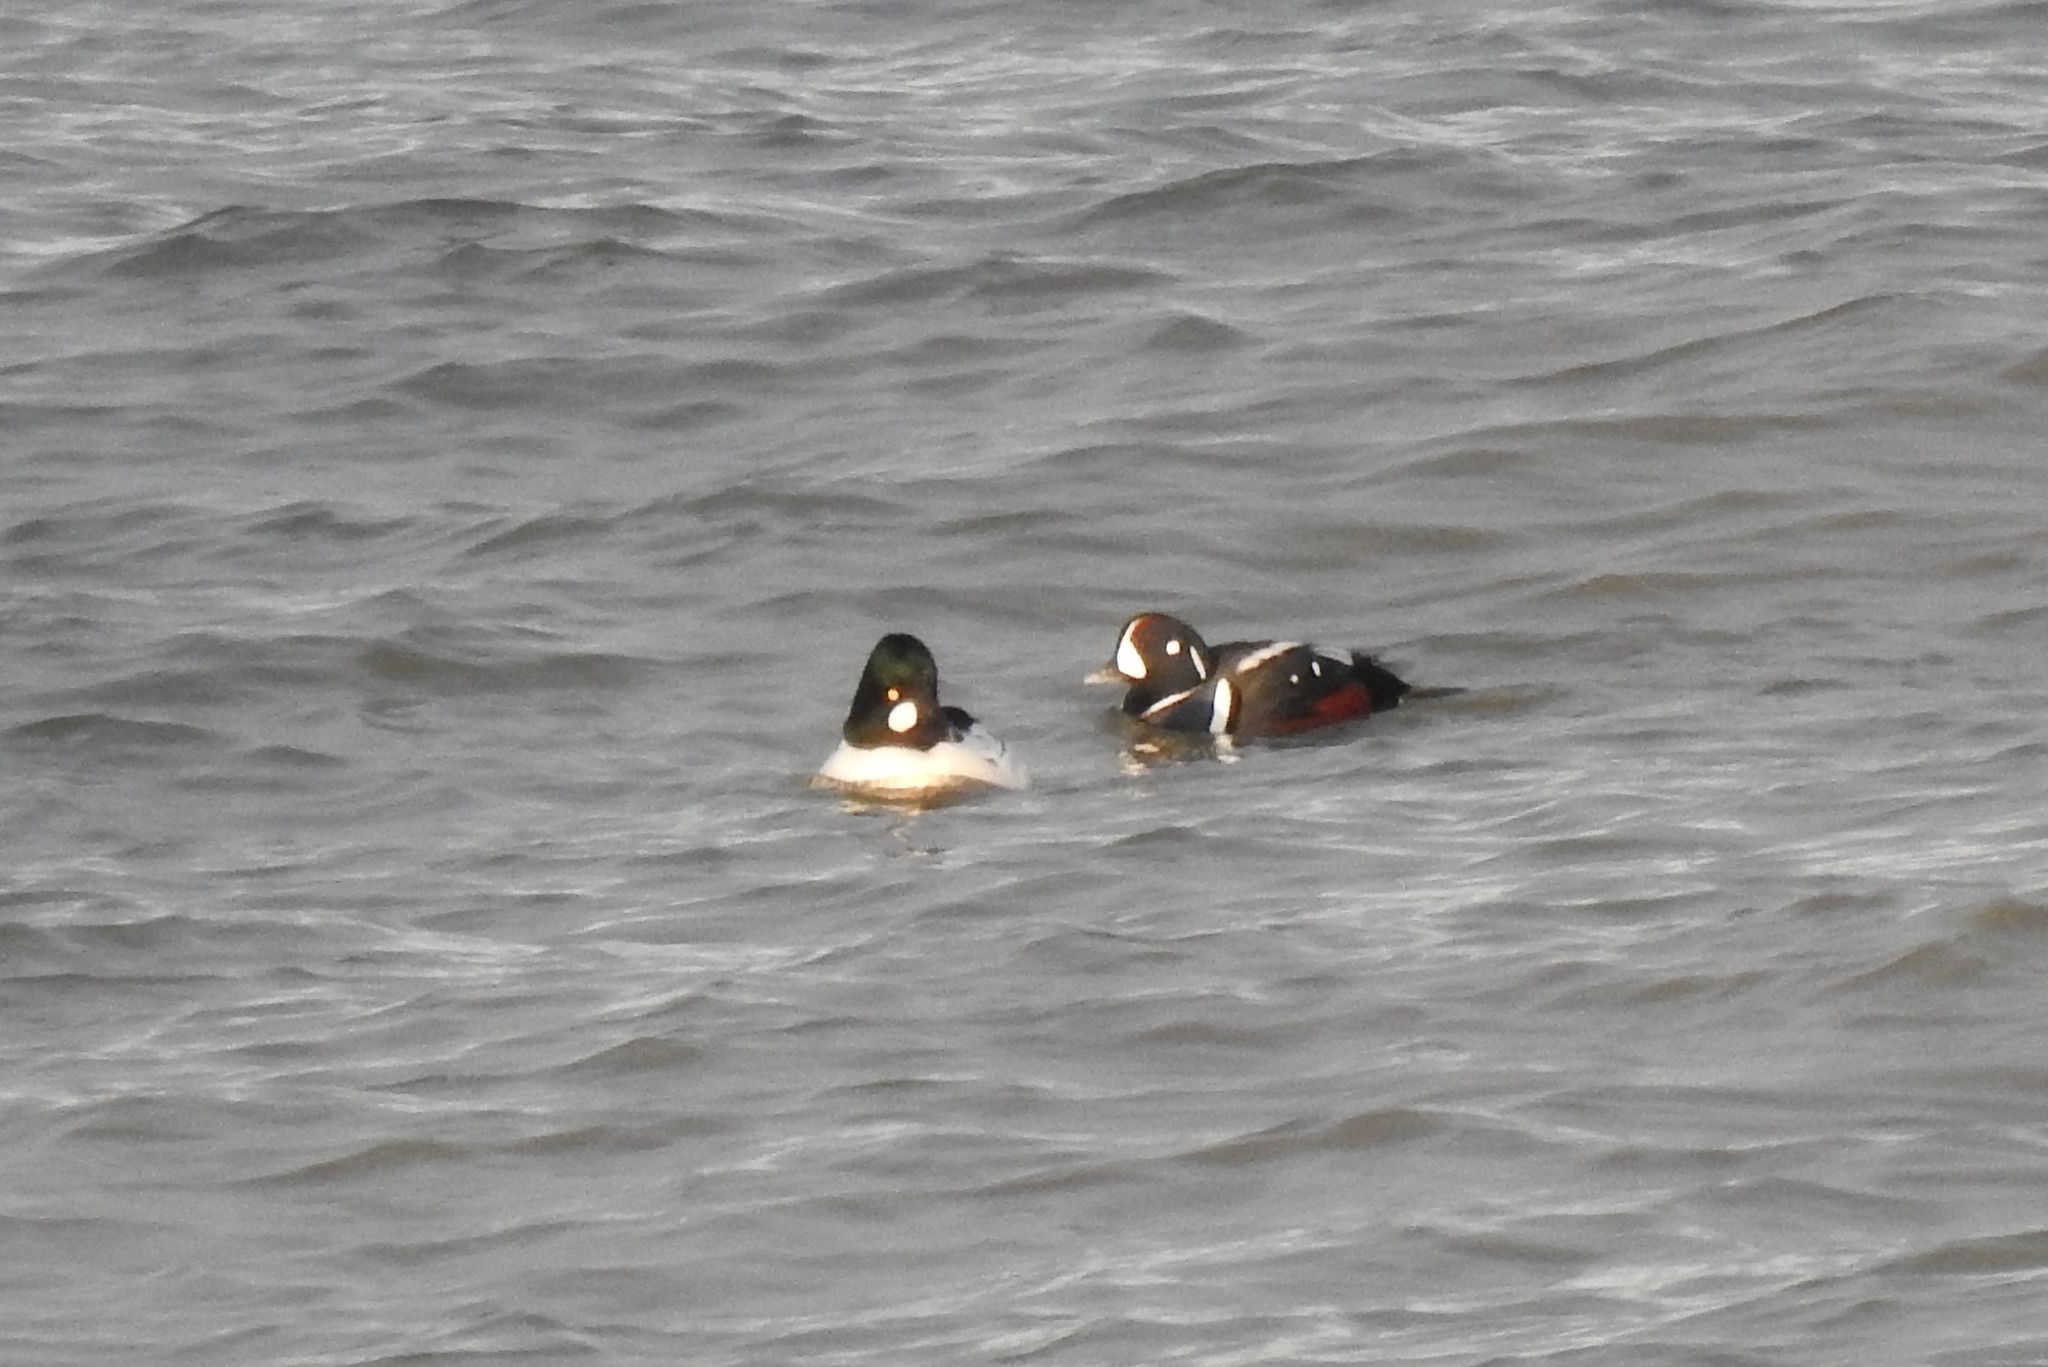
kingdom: Animalia
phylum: Chordata
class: Aves
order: Anseriformes
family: Anatidae
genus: Bucephala
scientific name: Bucephala clangula
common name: Common goldeneye
